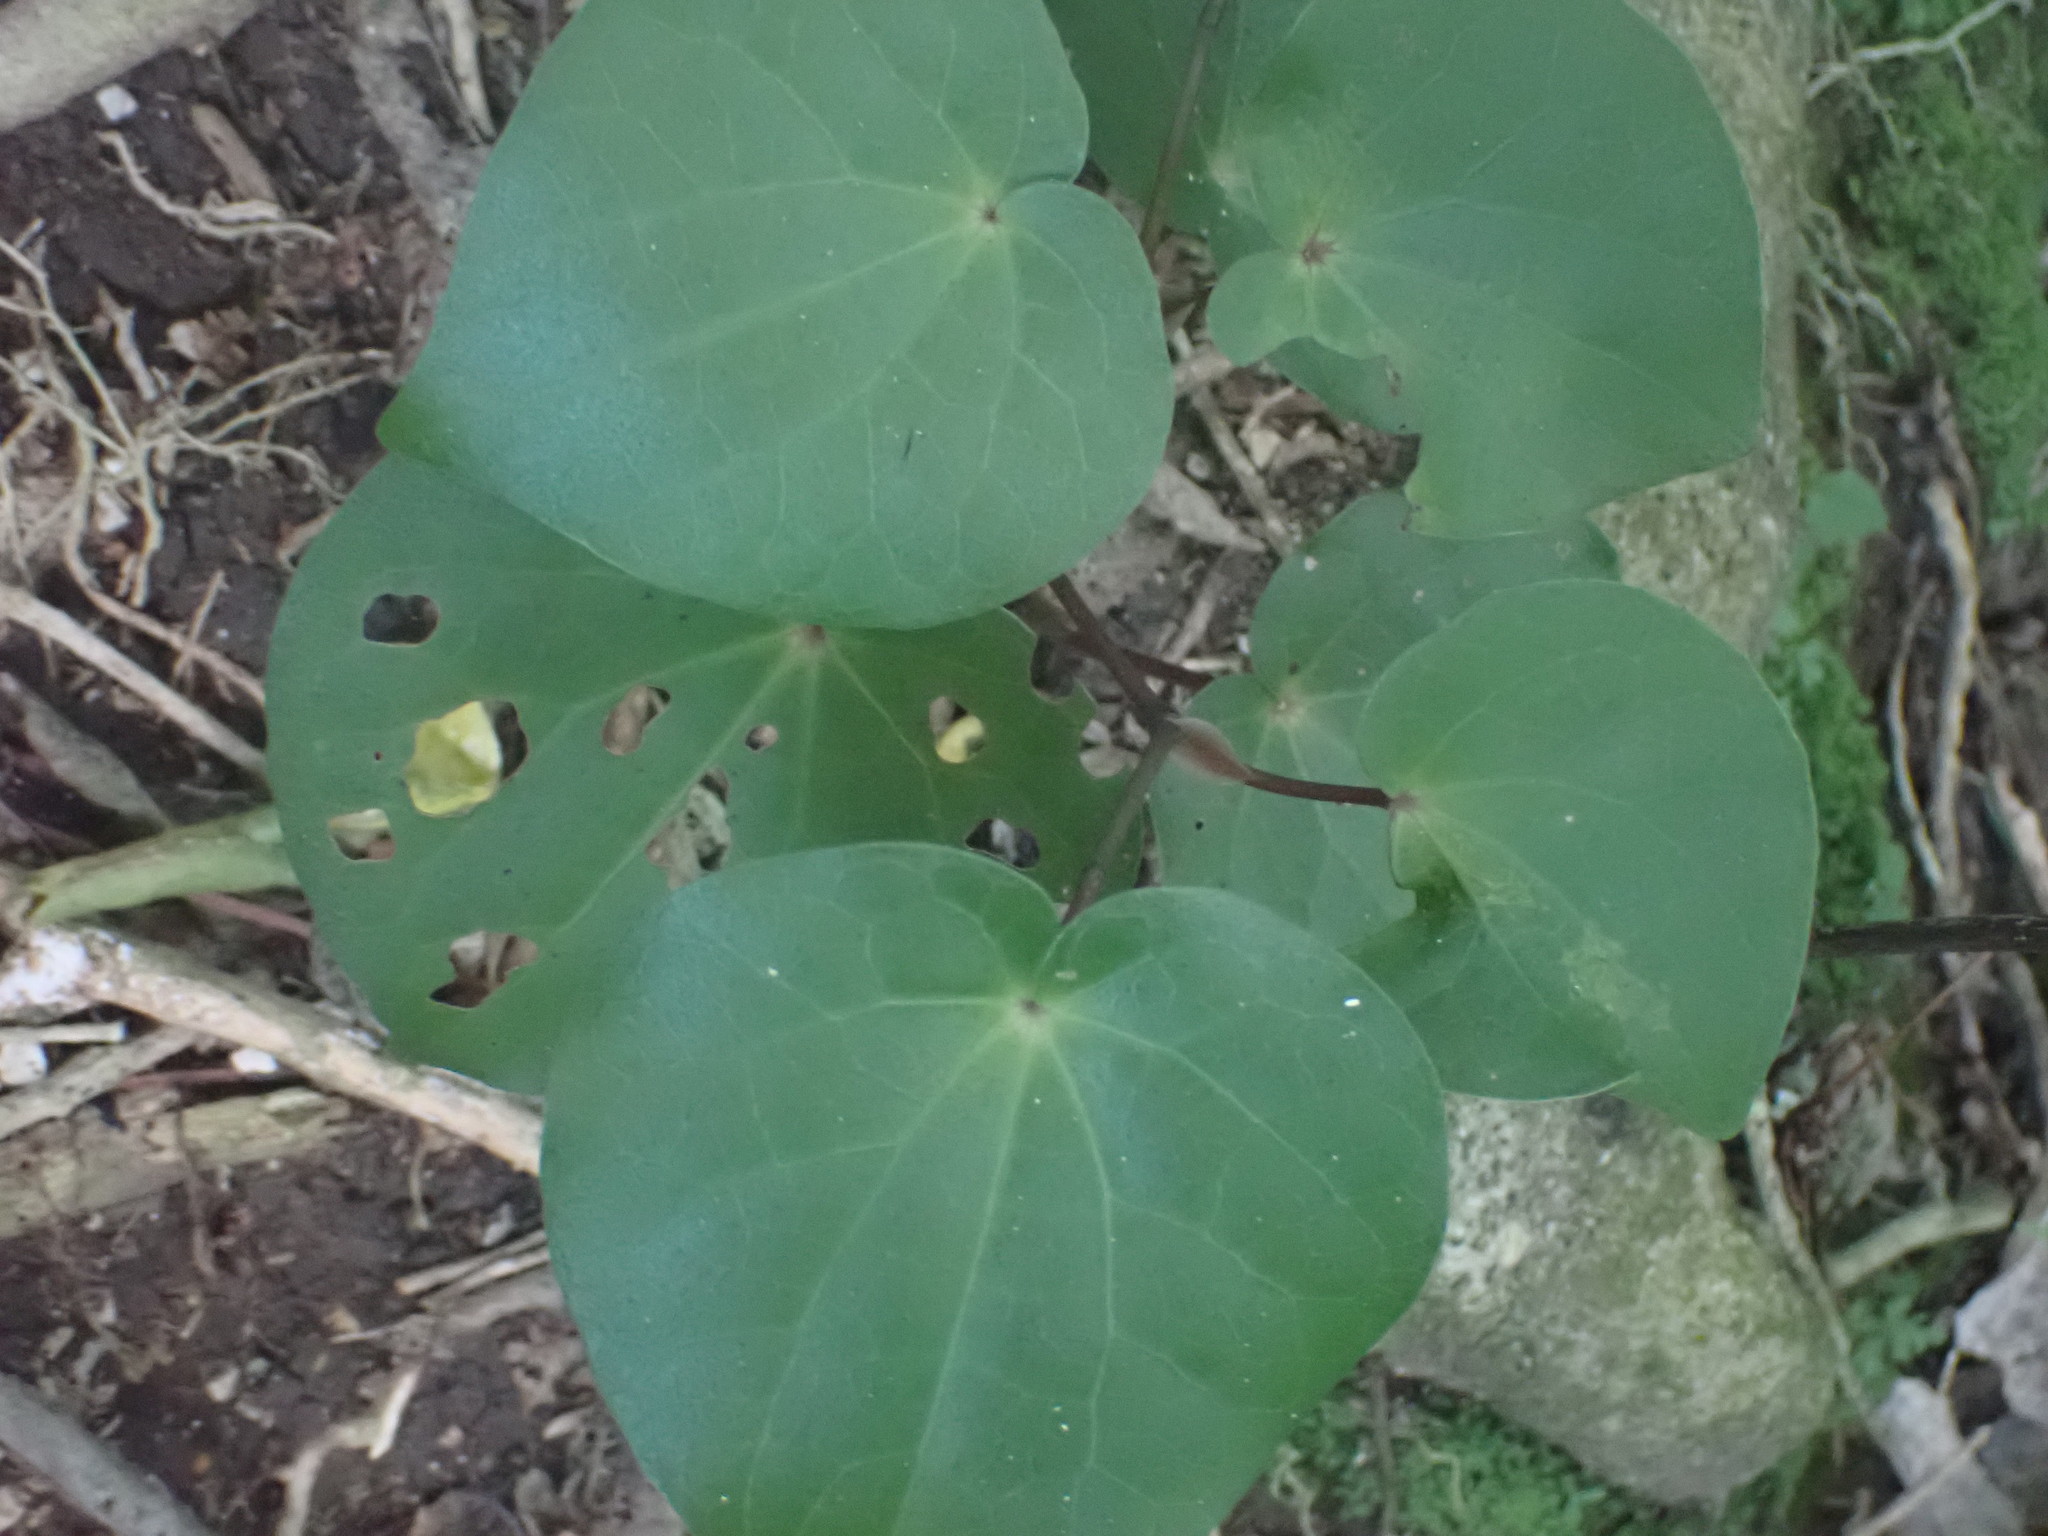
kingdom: Plantae
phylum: Tracheophyta
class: Magnoliopsida
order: Piperales
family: Piperaceae
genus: Macropiper
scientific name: Macropiper excelsum
